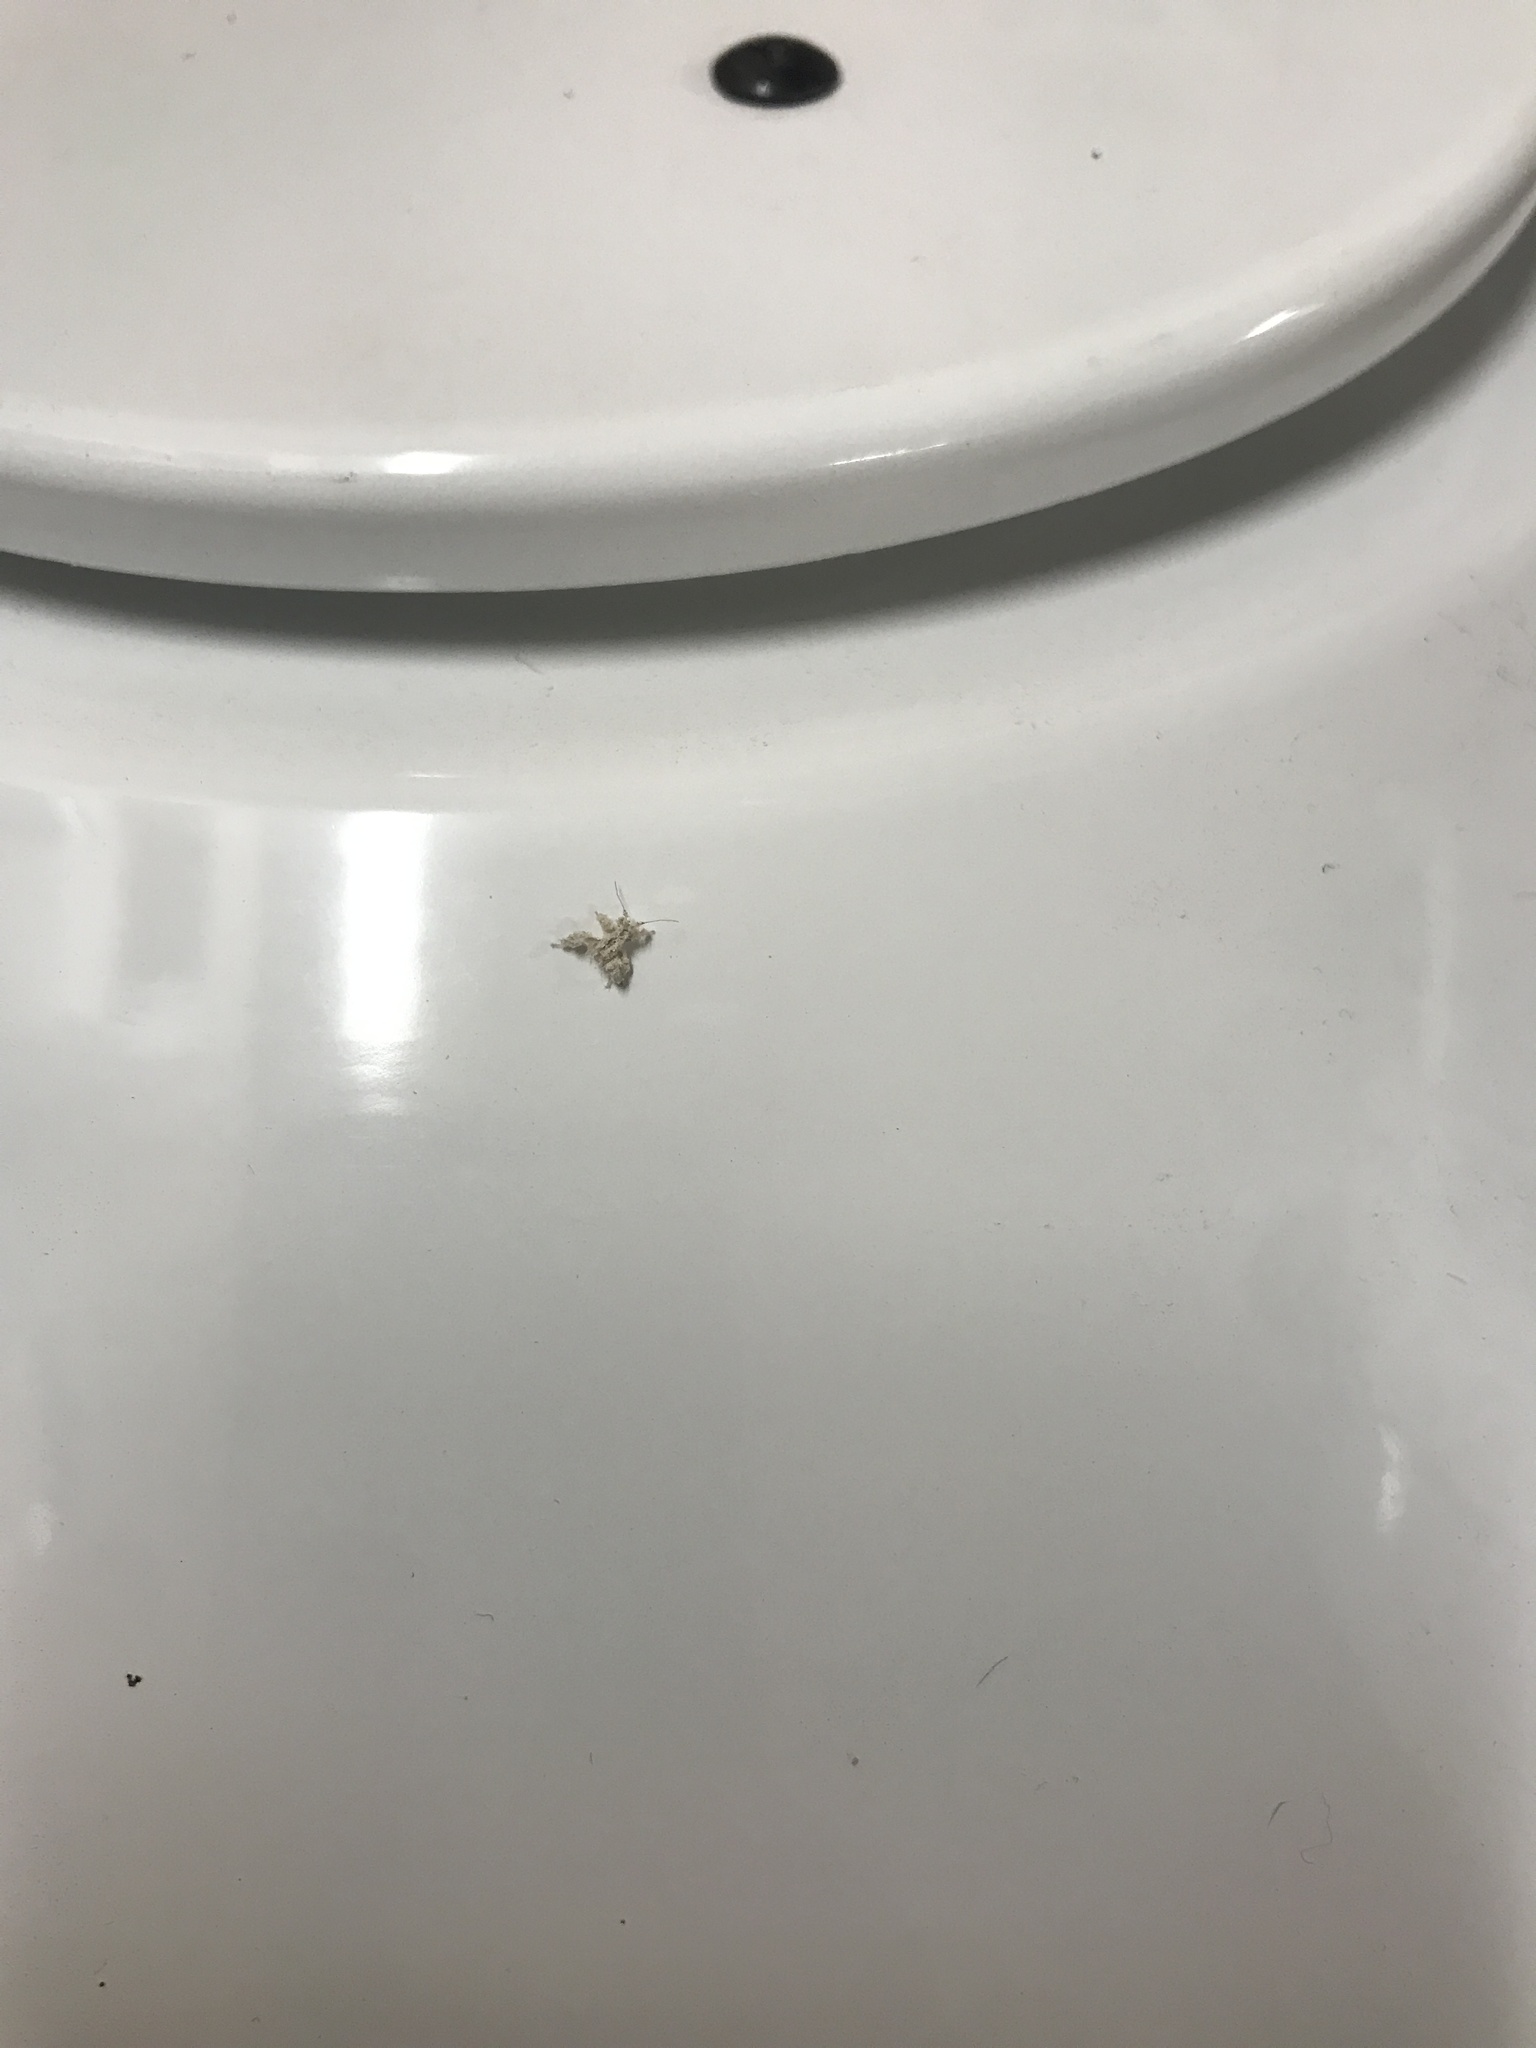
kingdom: Animalia
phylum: Arthropoda
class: Insecta
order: Hemiptera
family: Reduviidae
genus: Reduvius
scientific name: Reduvius personatus
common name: Masked hunter
